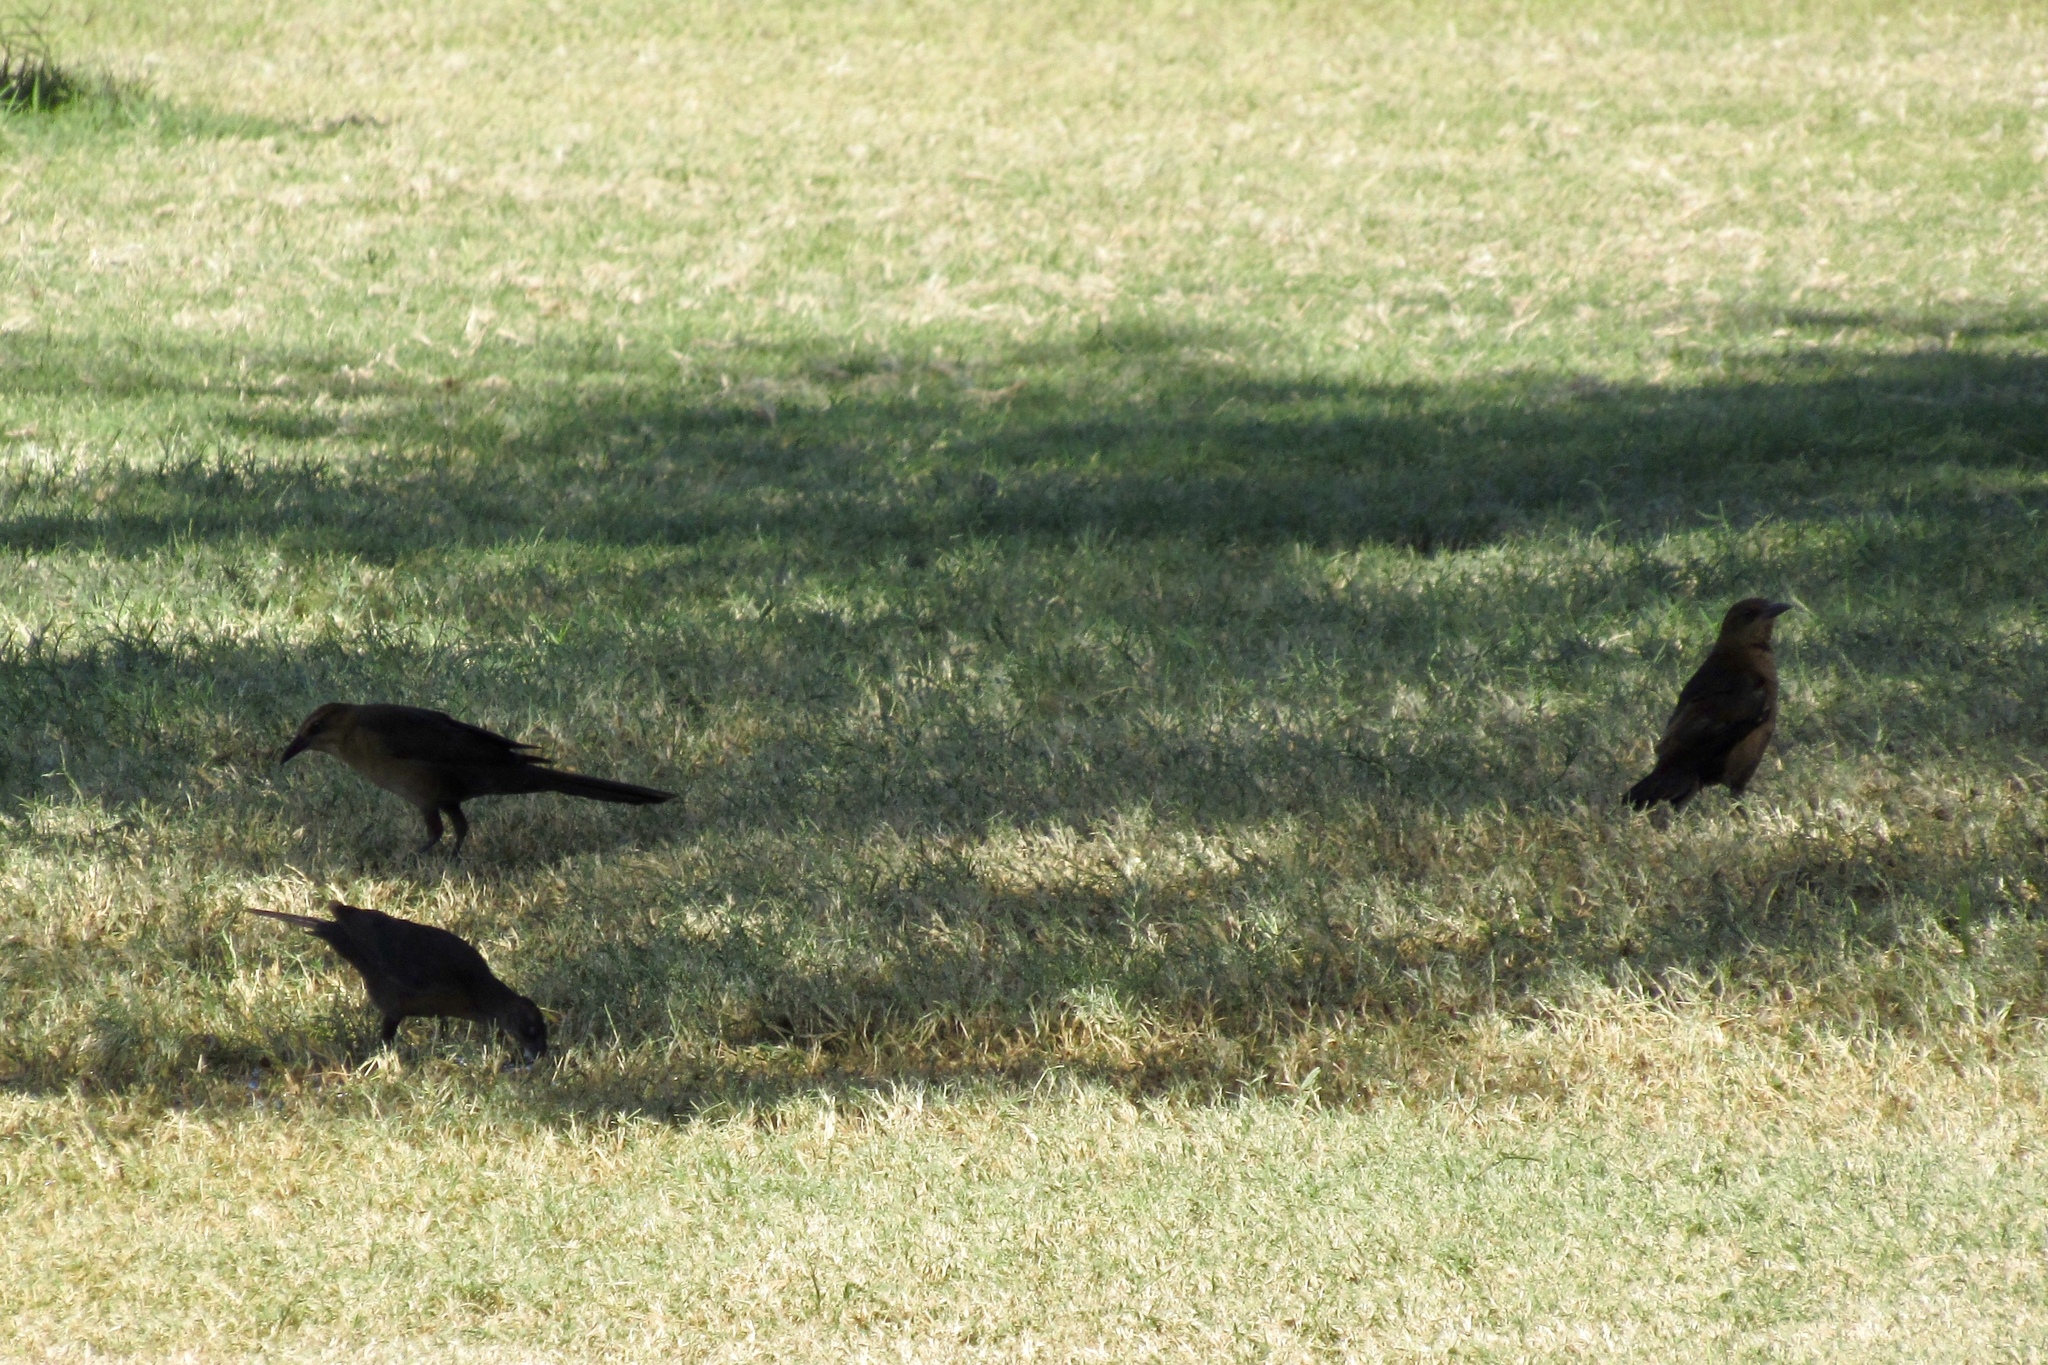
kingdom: Animalia
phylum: Chordata
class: Aves
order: Passeriformes
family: Icteridae
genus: Quiscalus
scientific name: Quiscalus mexicanus
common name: Great-tailed grackle
